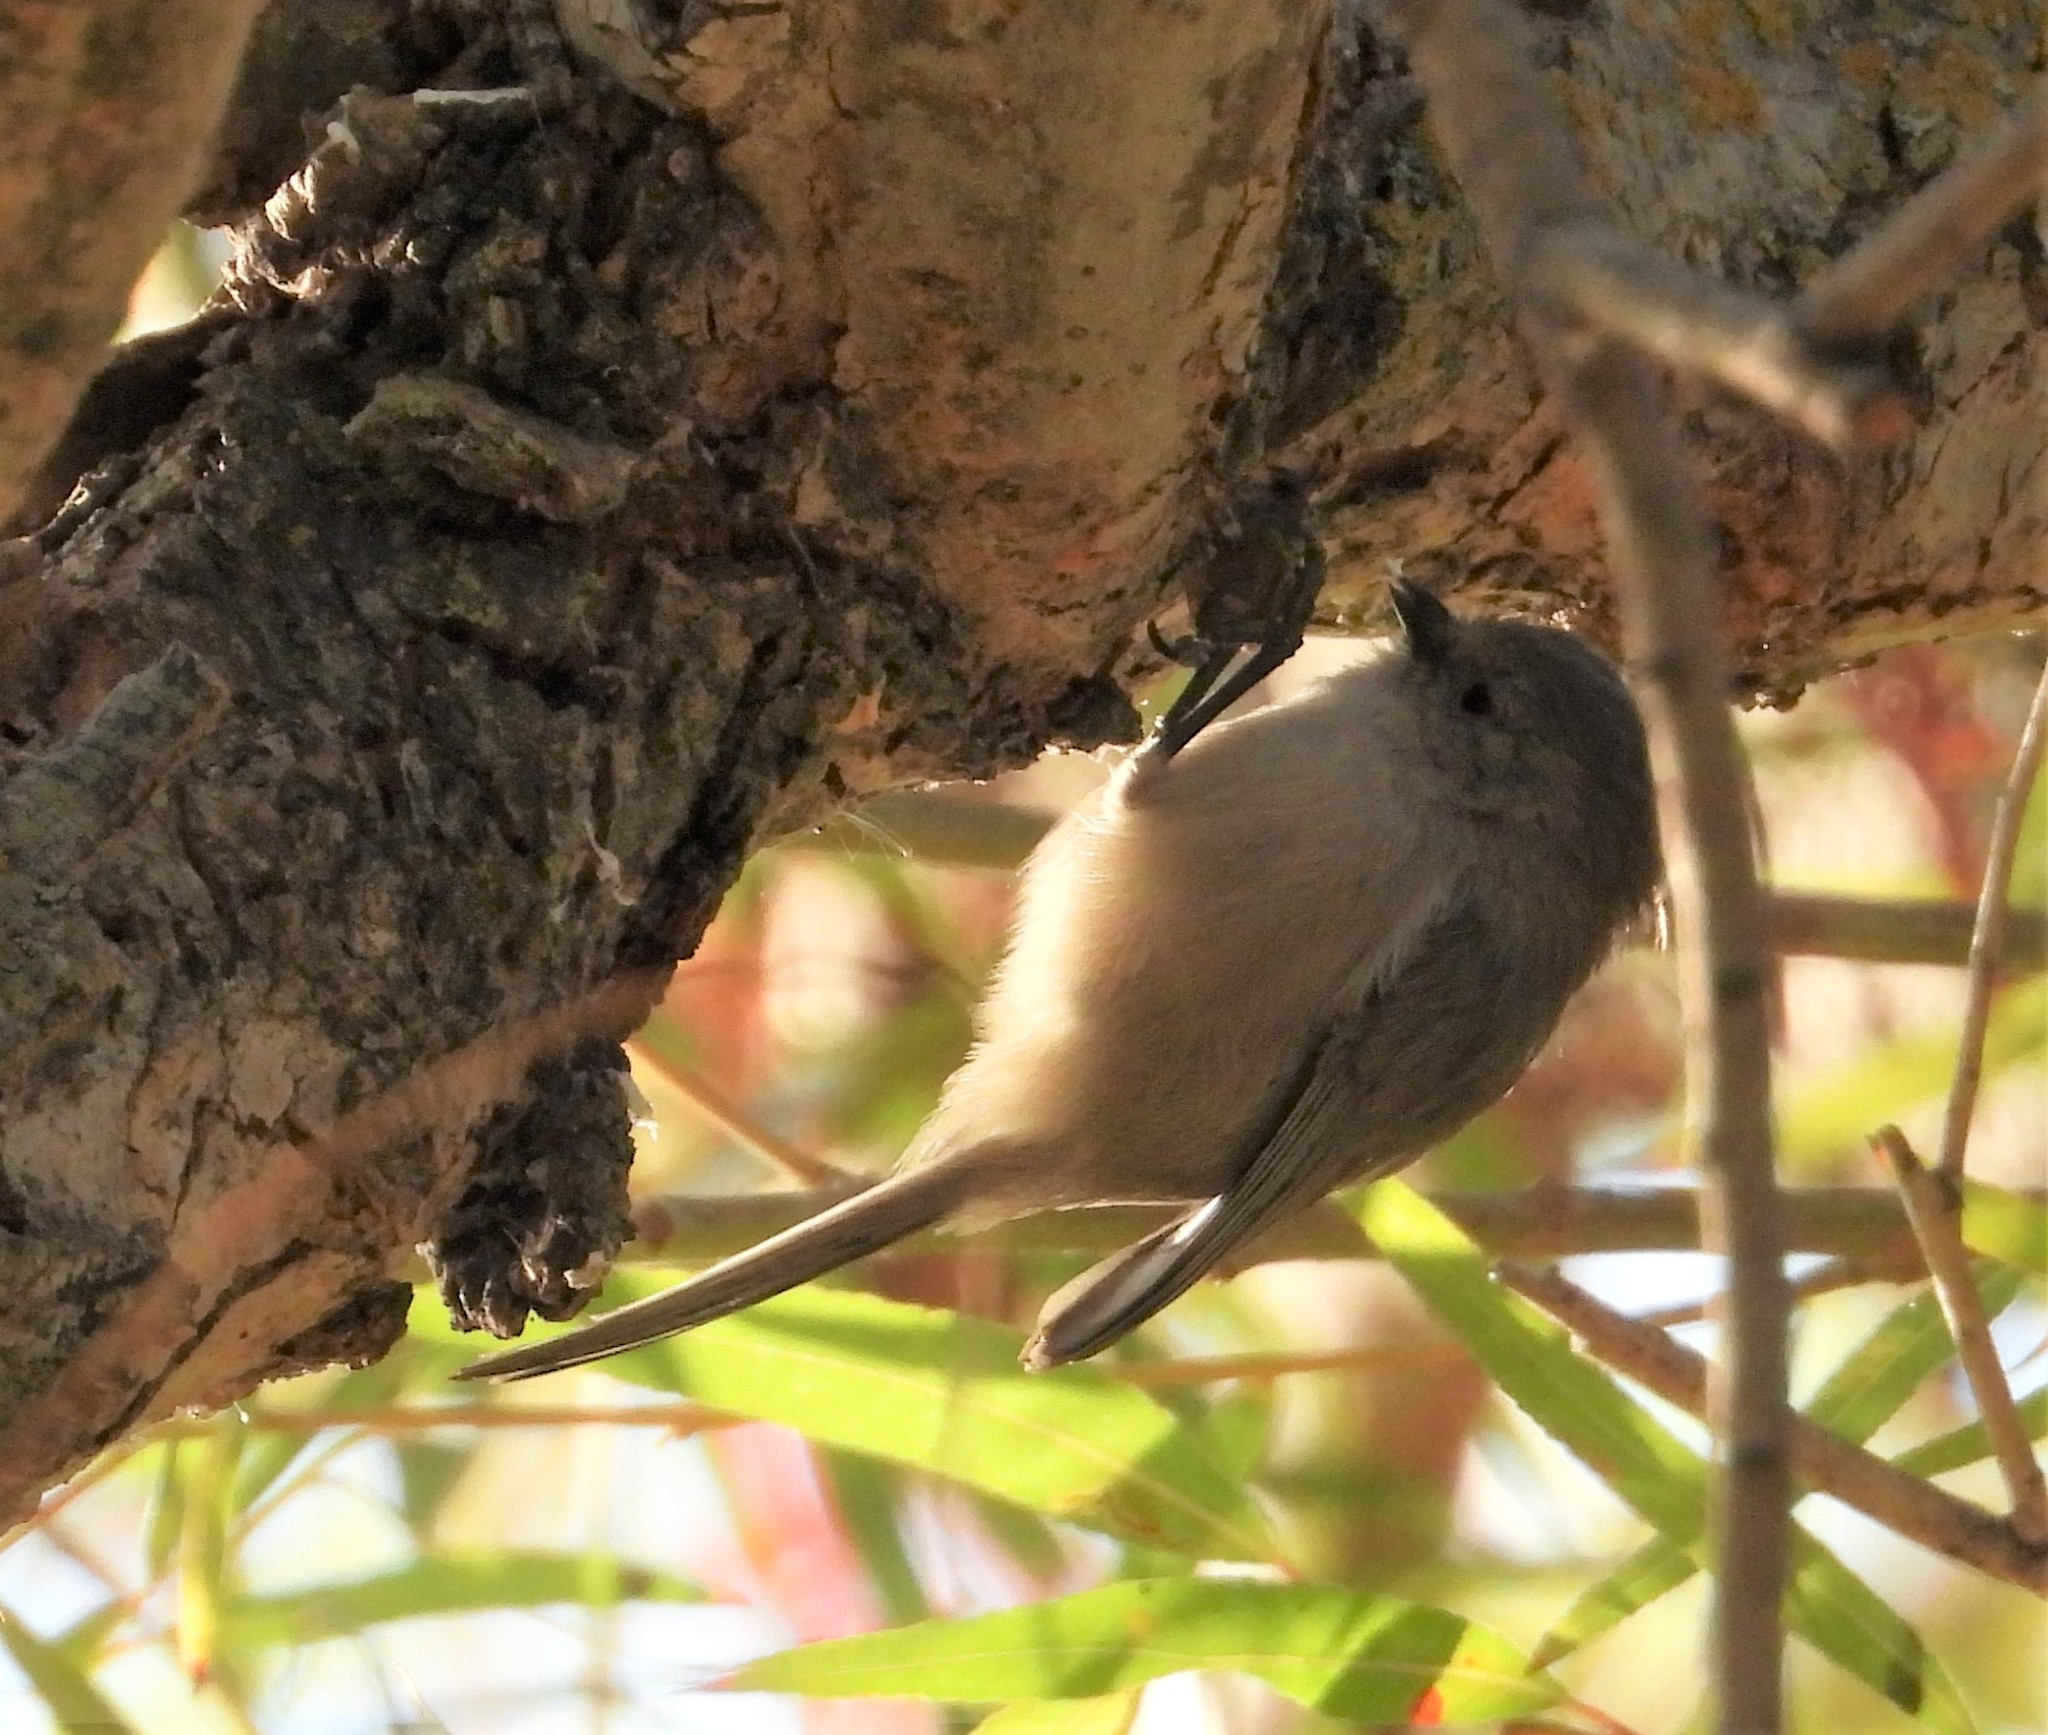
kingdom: Animalia
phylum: Chordata
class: Aves
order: Passeriformes
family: Aegithalidae
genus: Psaltriparus
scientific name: Psaltriparus minimus
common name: American bushtit
